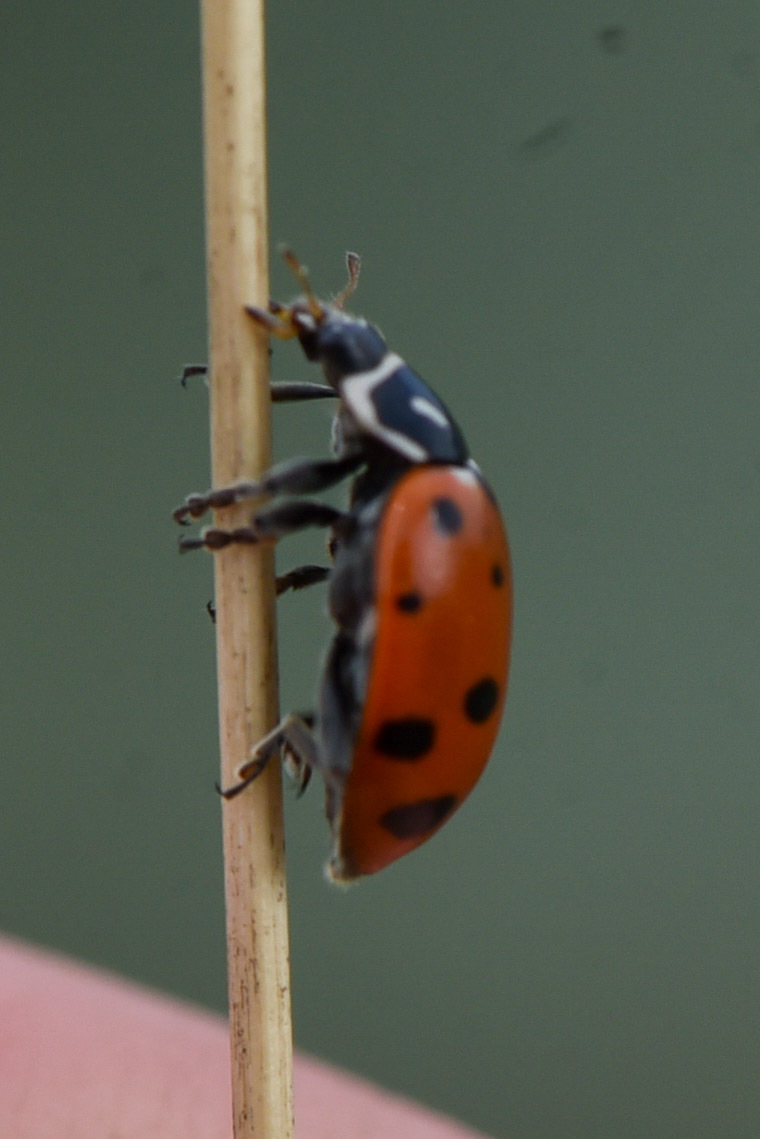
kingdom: Animalia
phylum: Arthropoda
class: Insecta
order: Coleoptera
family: Coccinellidae
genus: Hippodamia
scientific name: Hippodamia convergens
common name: Convergent lady beetle
